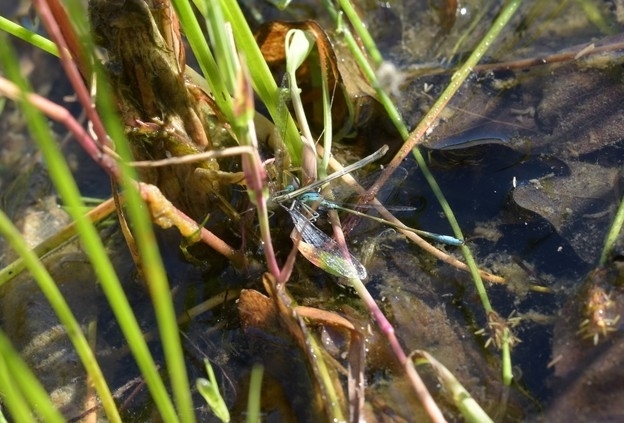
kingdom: Animalia
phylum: Arthropoda
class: Insecta
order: Odonata
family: Coenagrionidae
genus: Ischnura
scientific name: Ischnura elegans
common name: Blue-tailed damselfly
